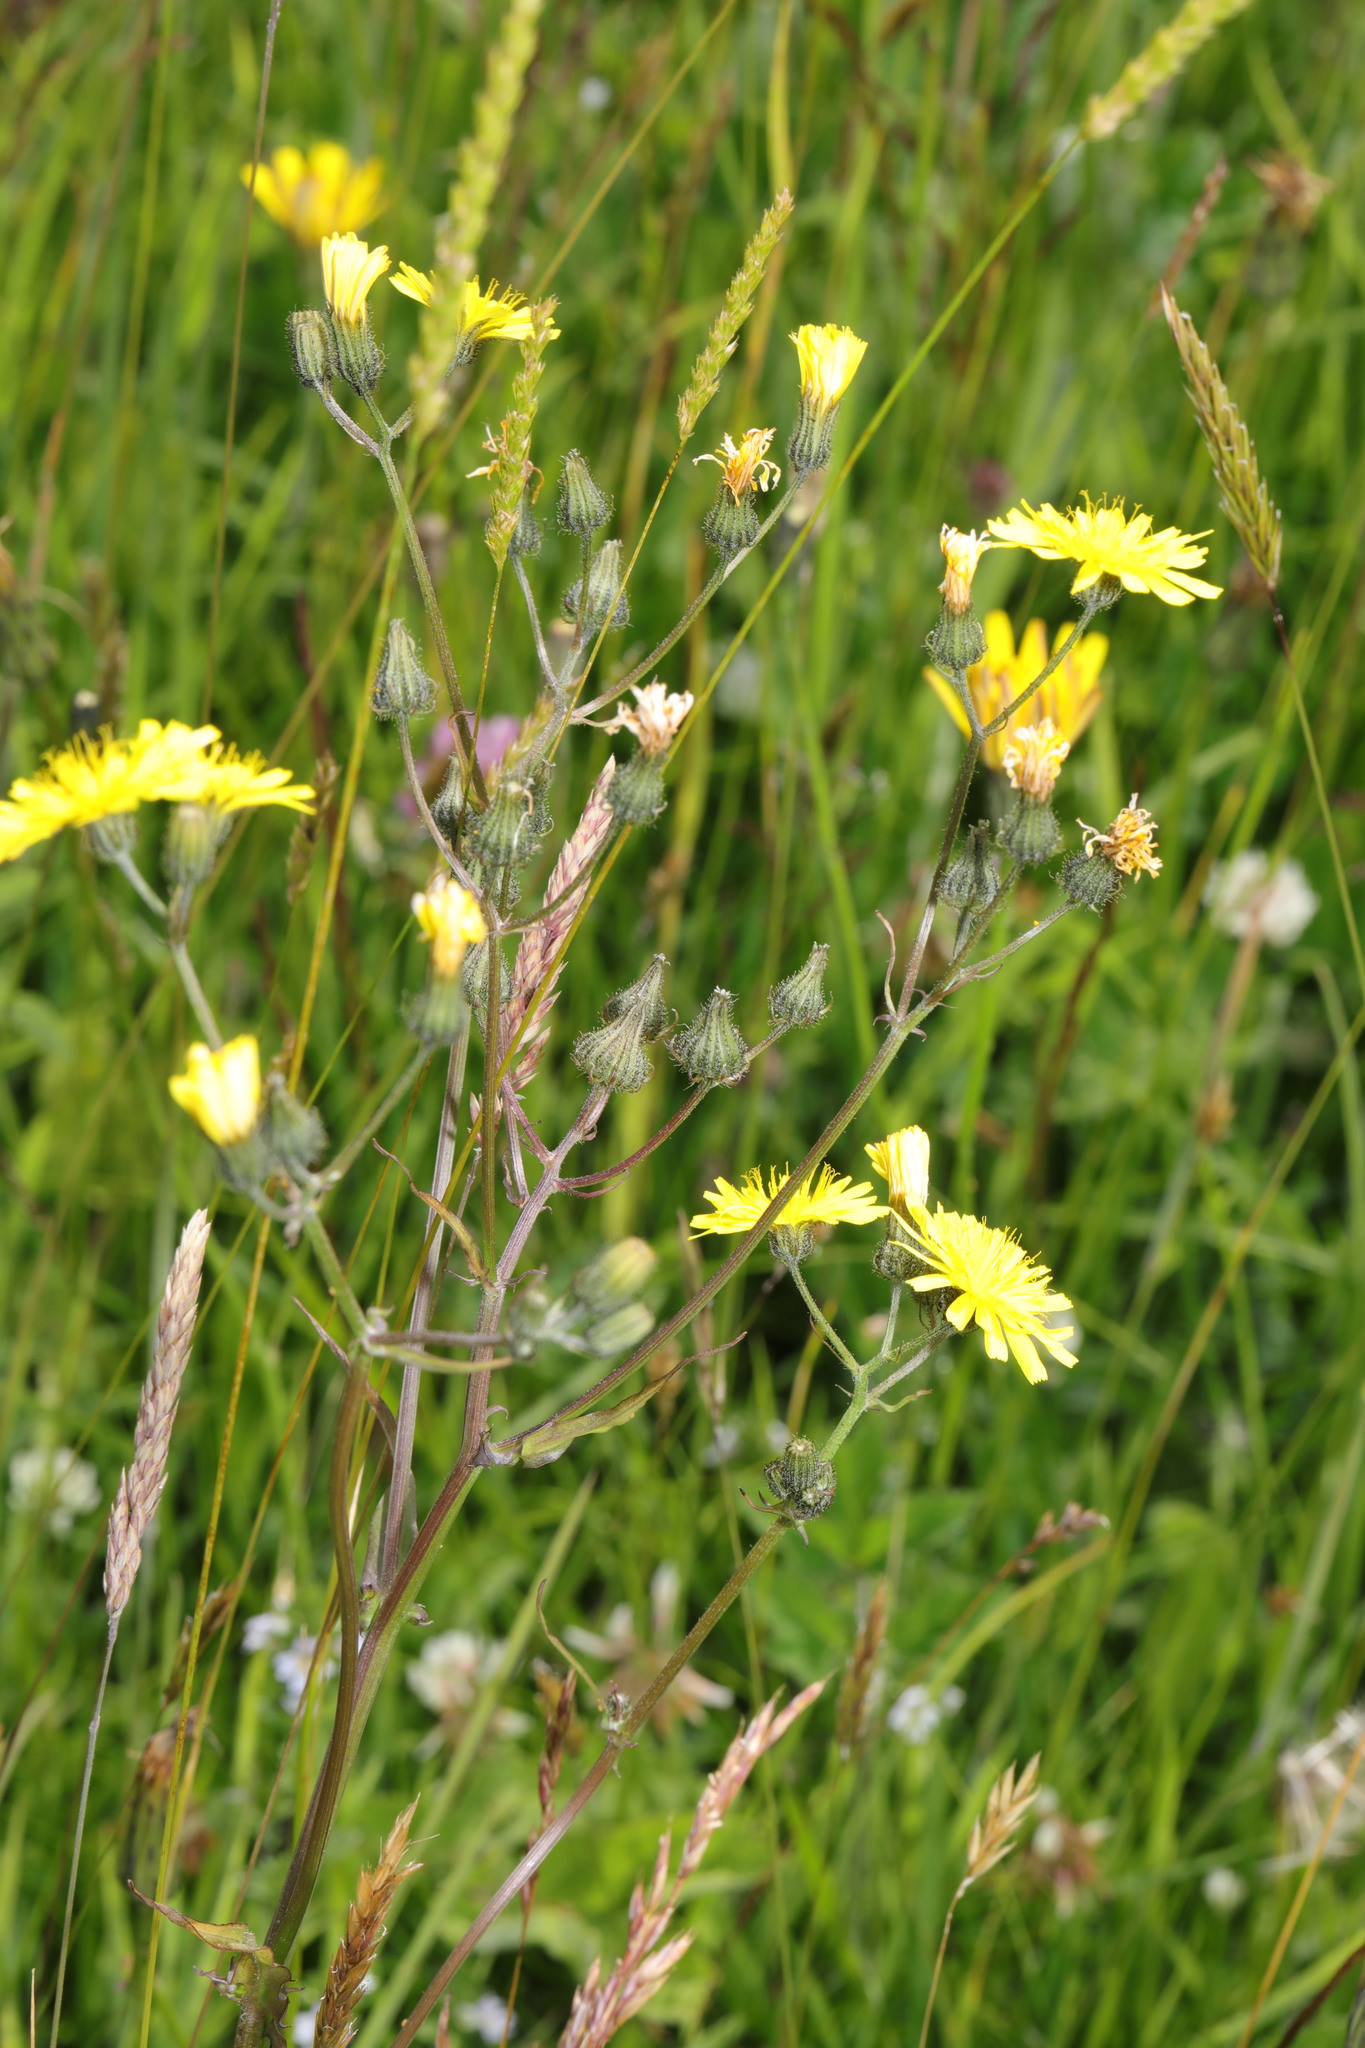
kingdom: Plantae
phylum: Tracheophyta
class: Magnoliopsida
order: Asterales
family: Asteraceae
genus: Crepis
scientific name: Crepis capillaris
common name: Smooth hawksbeard
